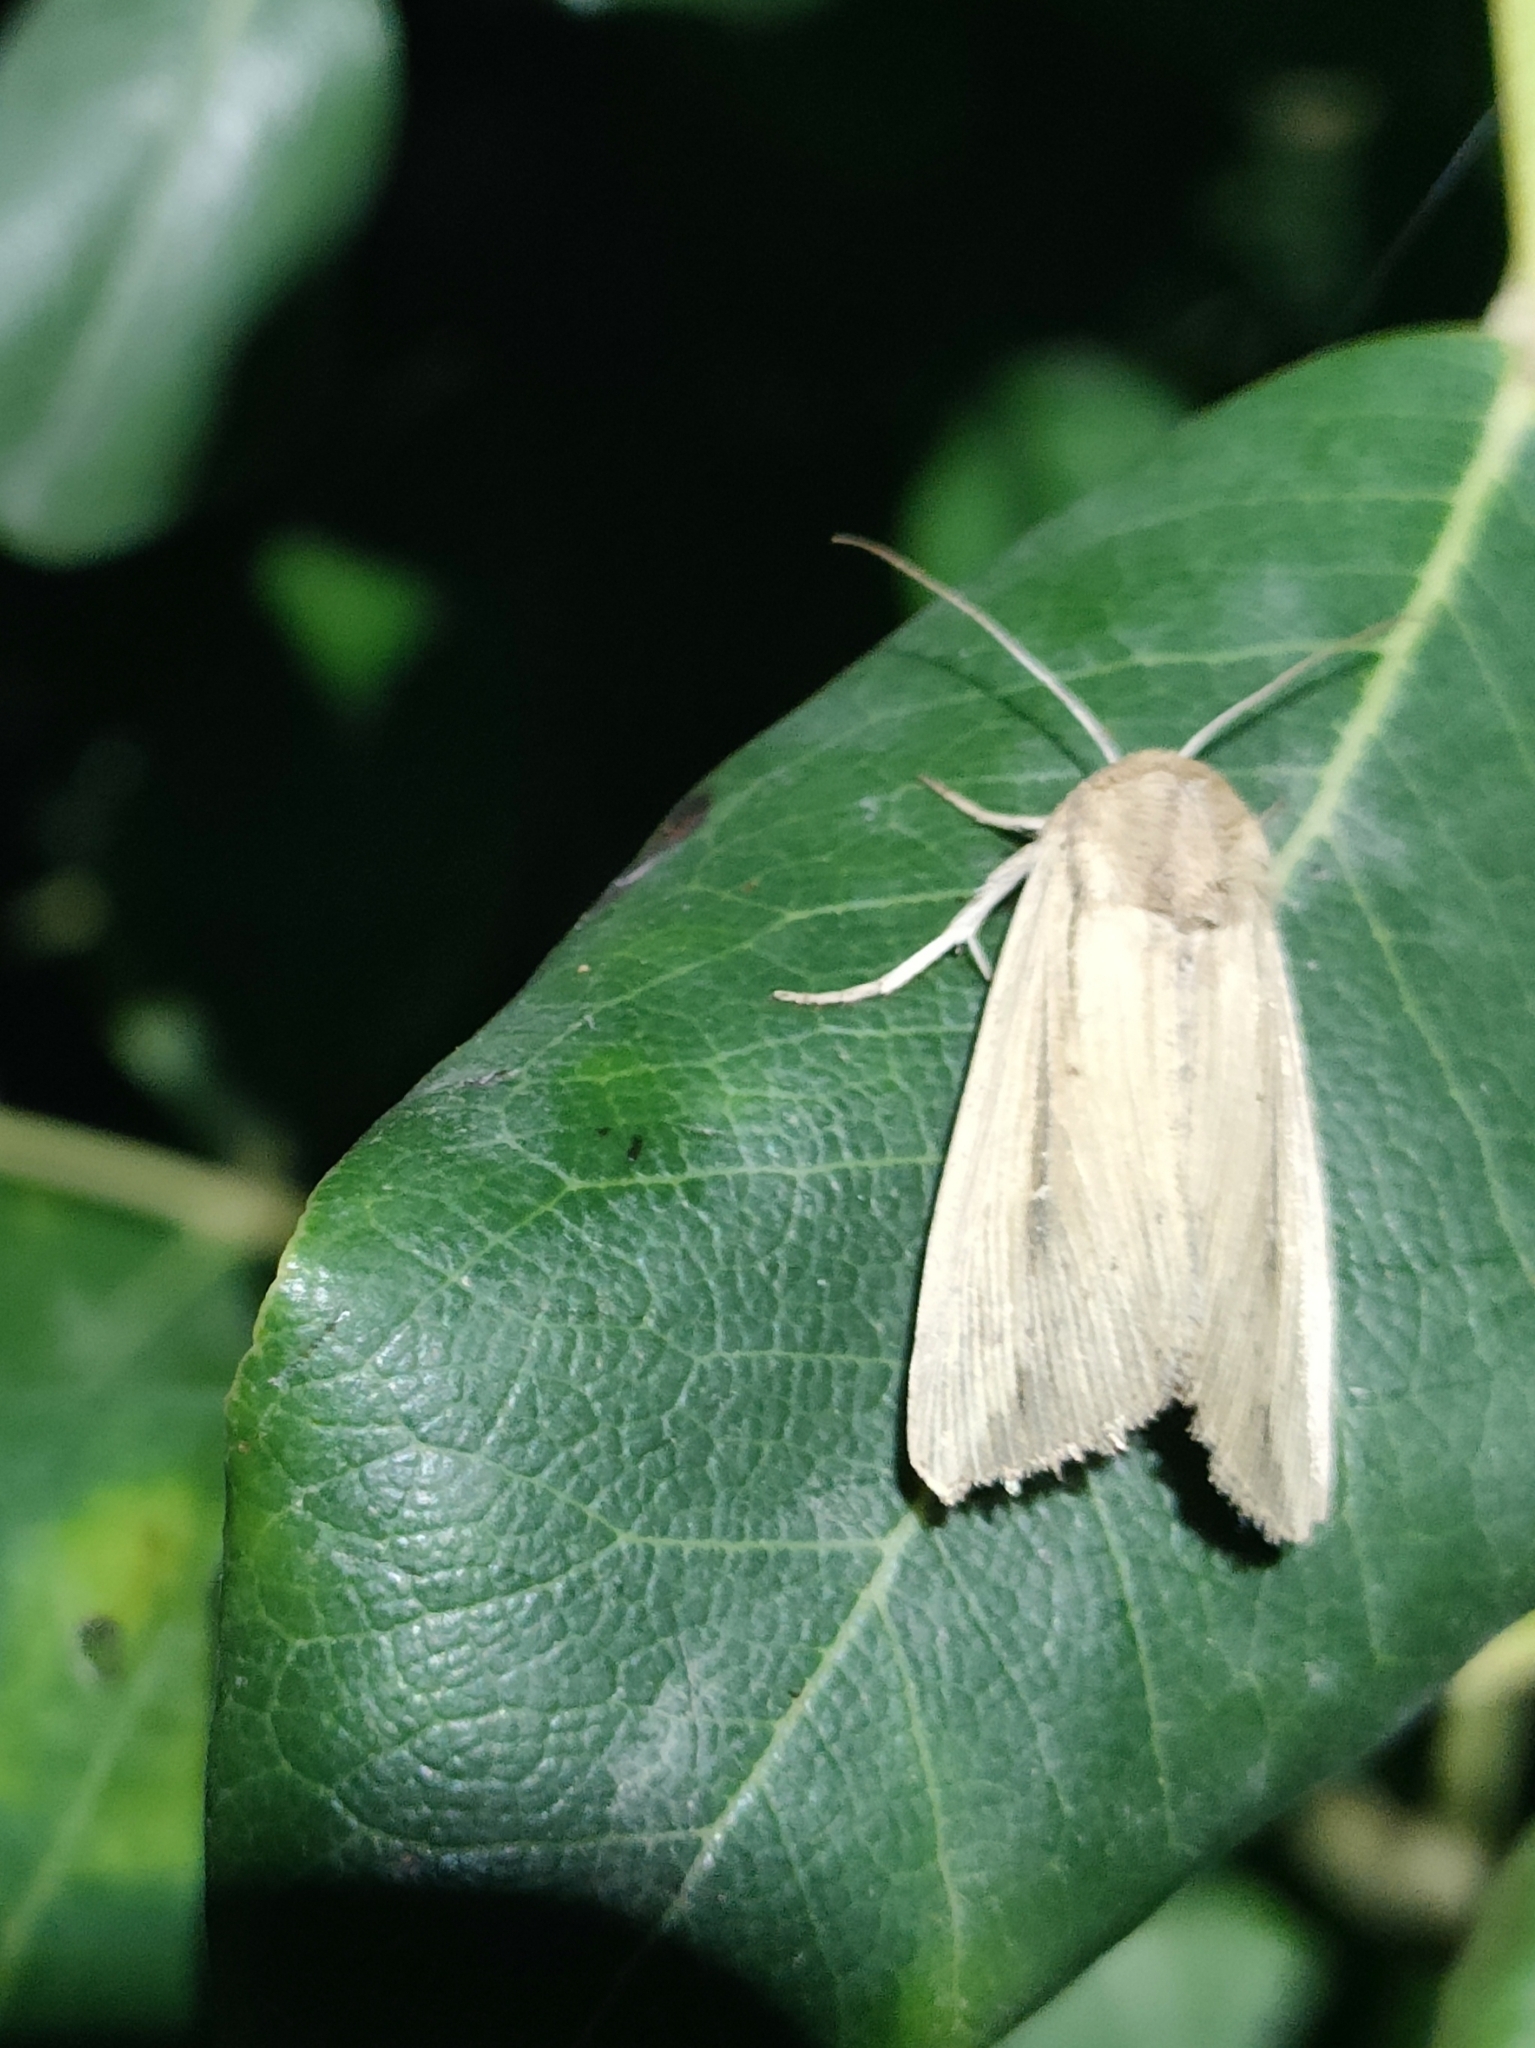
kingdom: Animalia
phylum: Arthropoda
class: Insecta
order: Lepidoptera
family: Noctuidae
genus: Leucania
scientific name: Leucania loreyi
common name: The cosmopolitan
